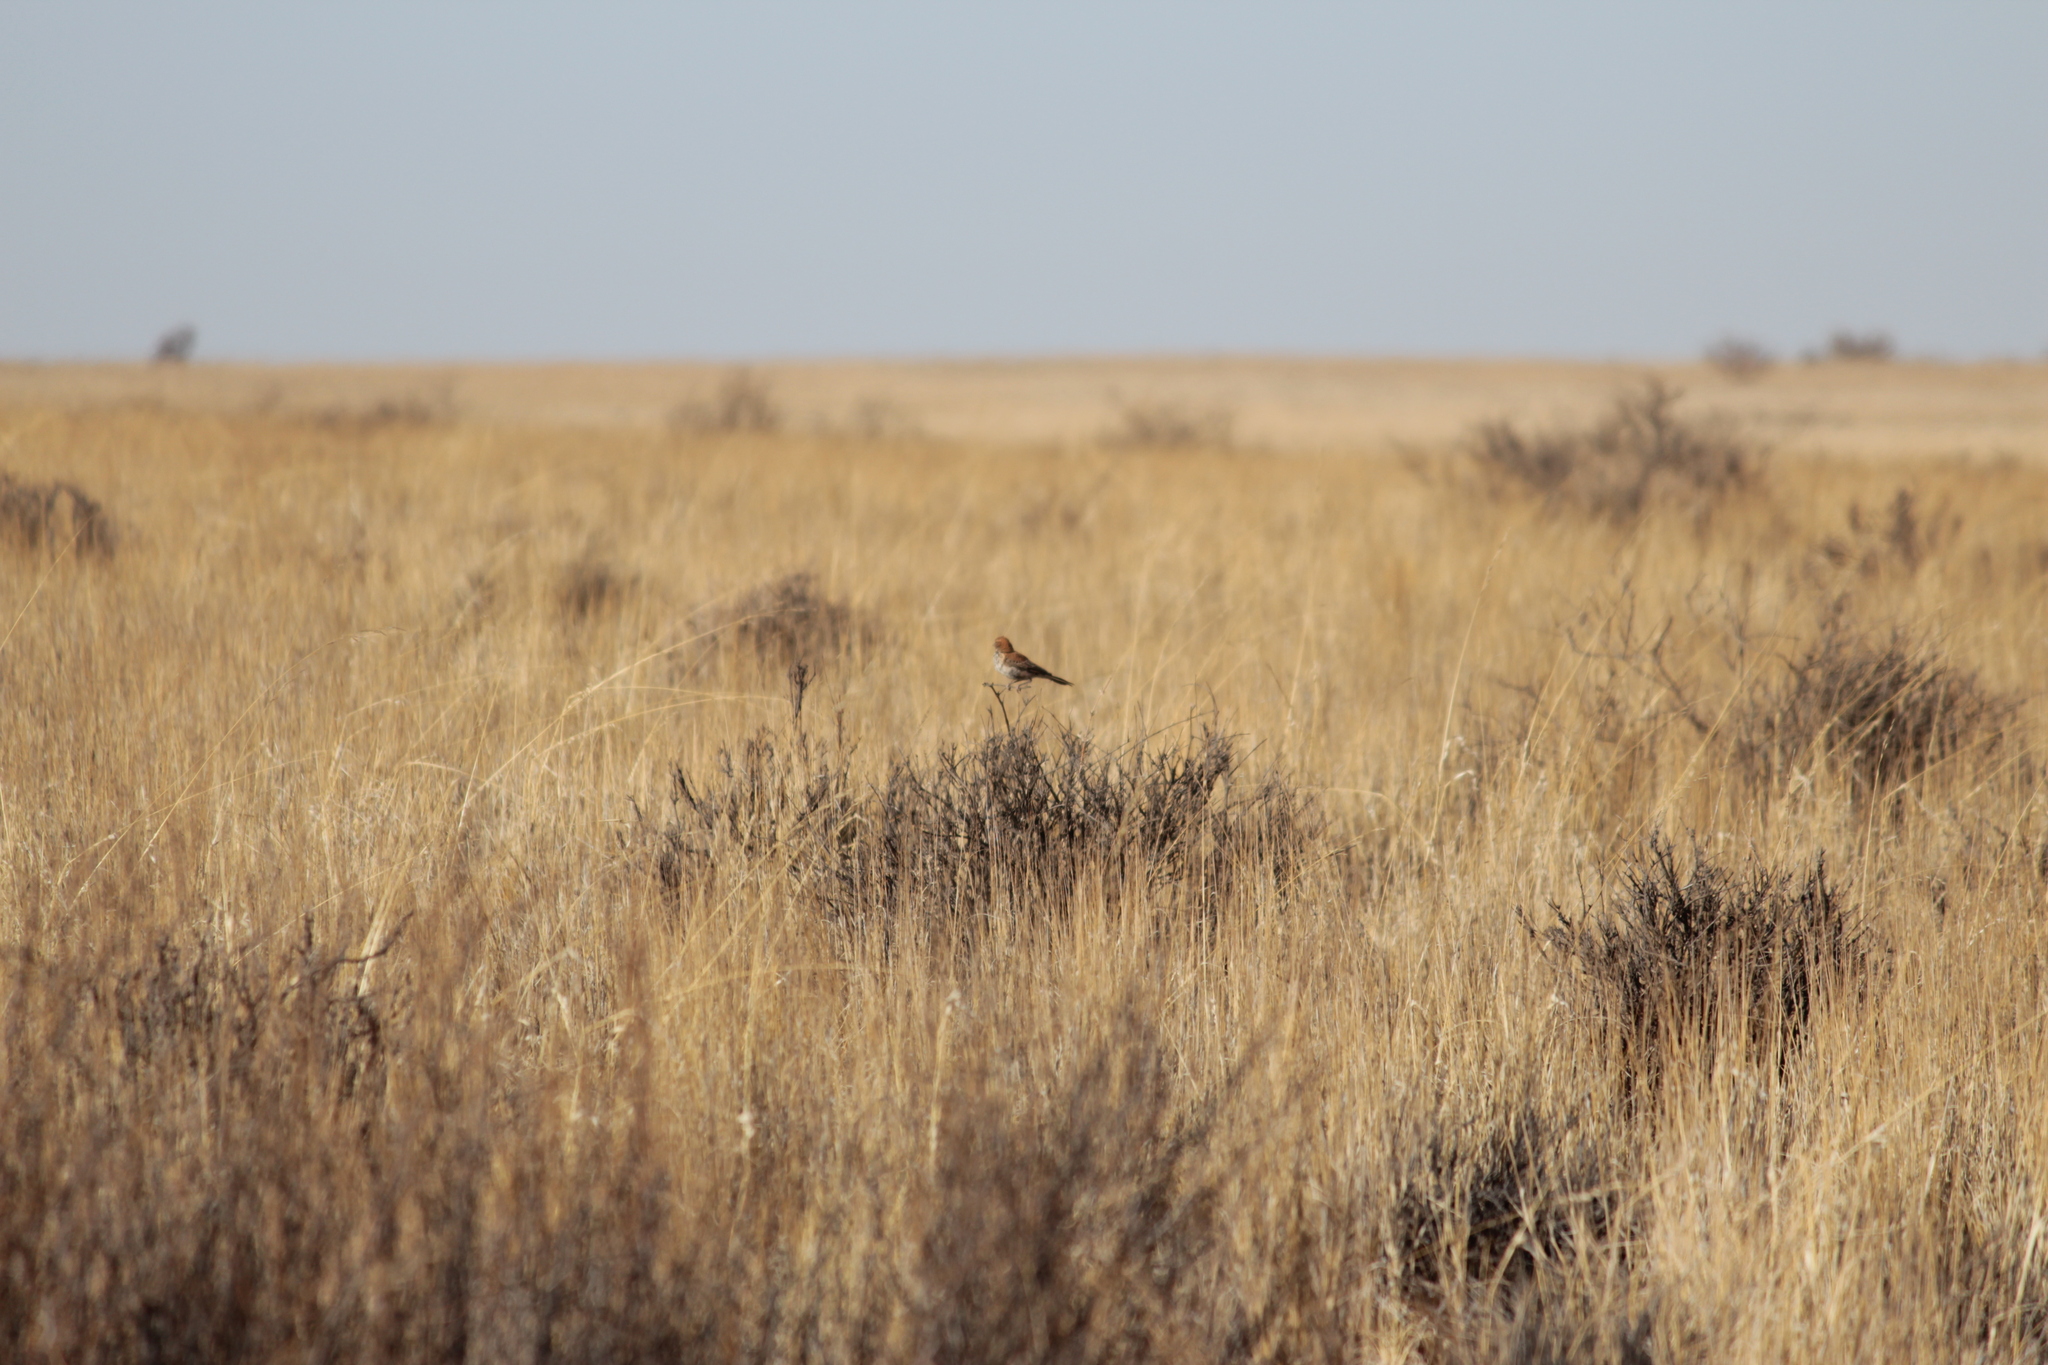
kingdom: Animalia
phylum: Chordata
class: Aves
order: Passeriformes
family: Alaudidae
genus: Calendulauda
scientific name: Calendulauda burra
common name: Red lark
